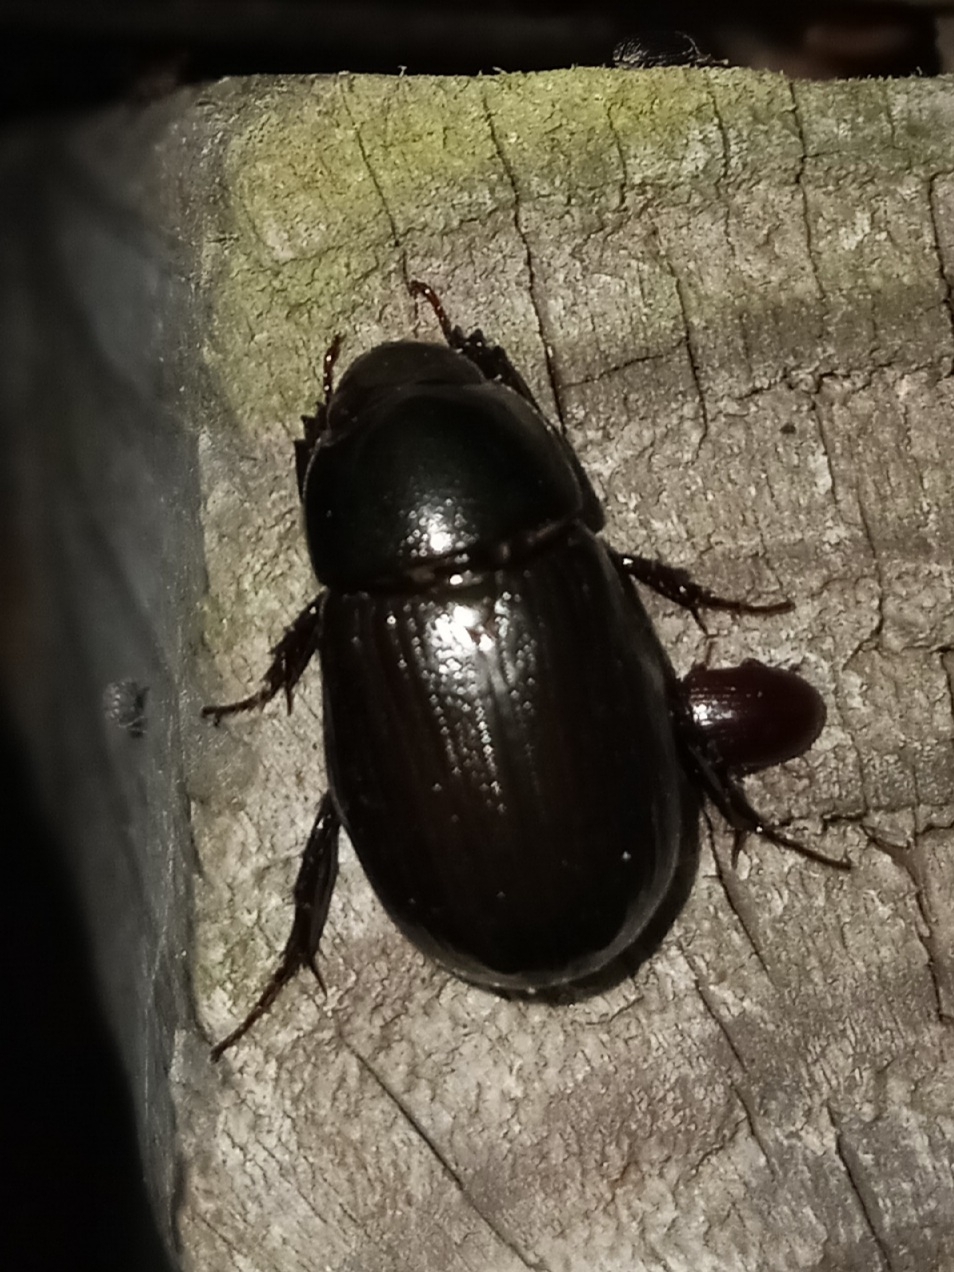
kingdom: Animalia
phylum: Arthropoda
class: Insecta
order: Coleoptera
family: Scarabaeidae
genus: Dyscinetus
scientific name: Dyscinetus morator
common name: Rice beetle
